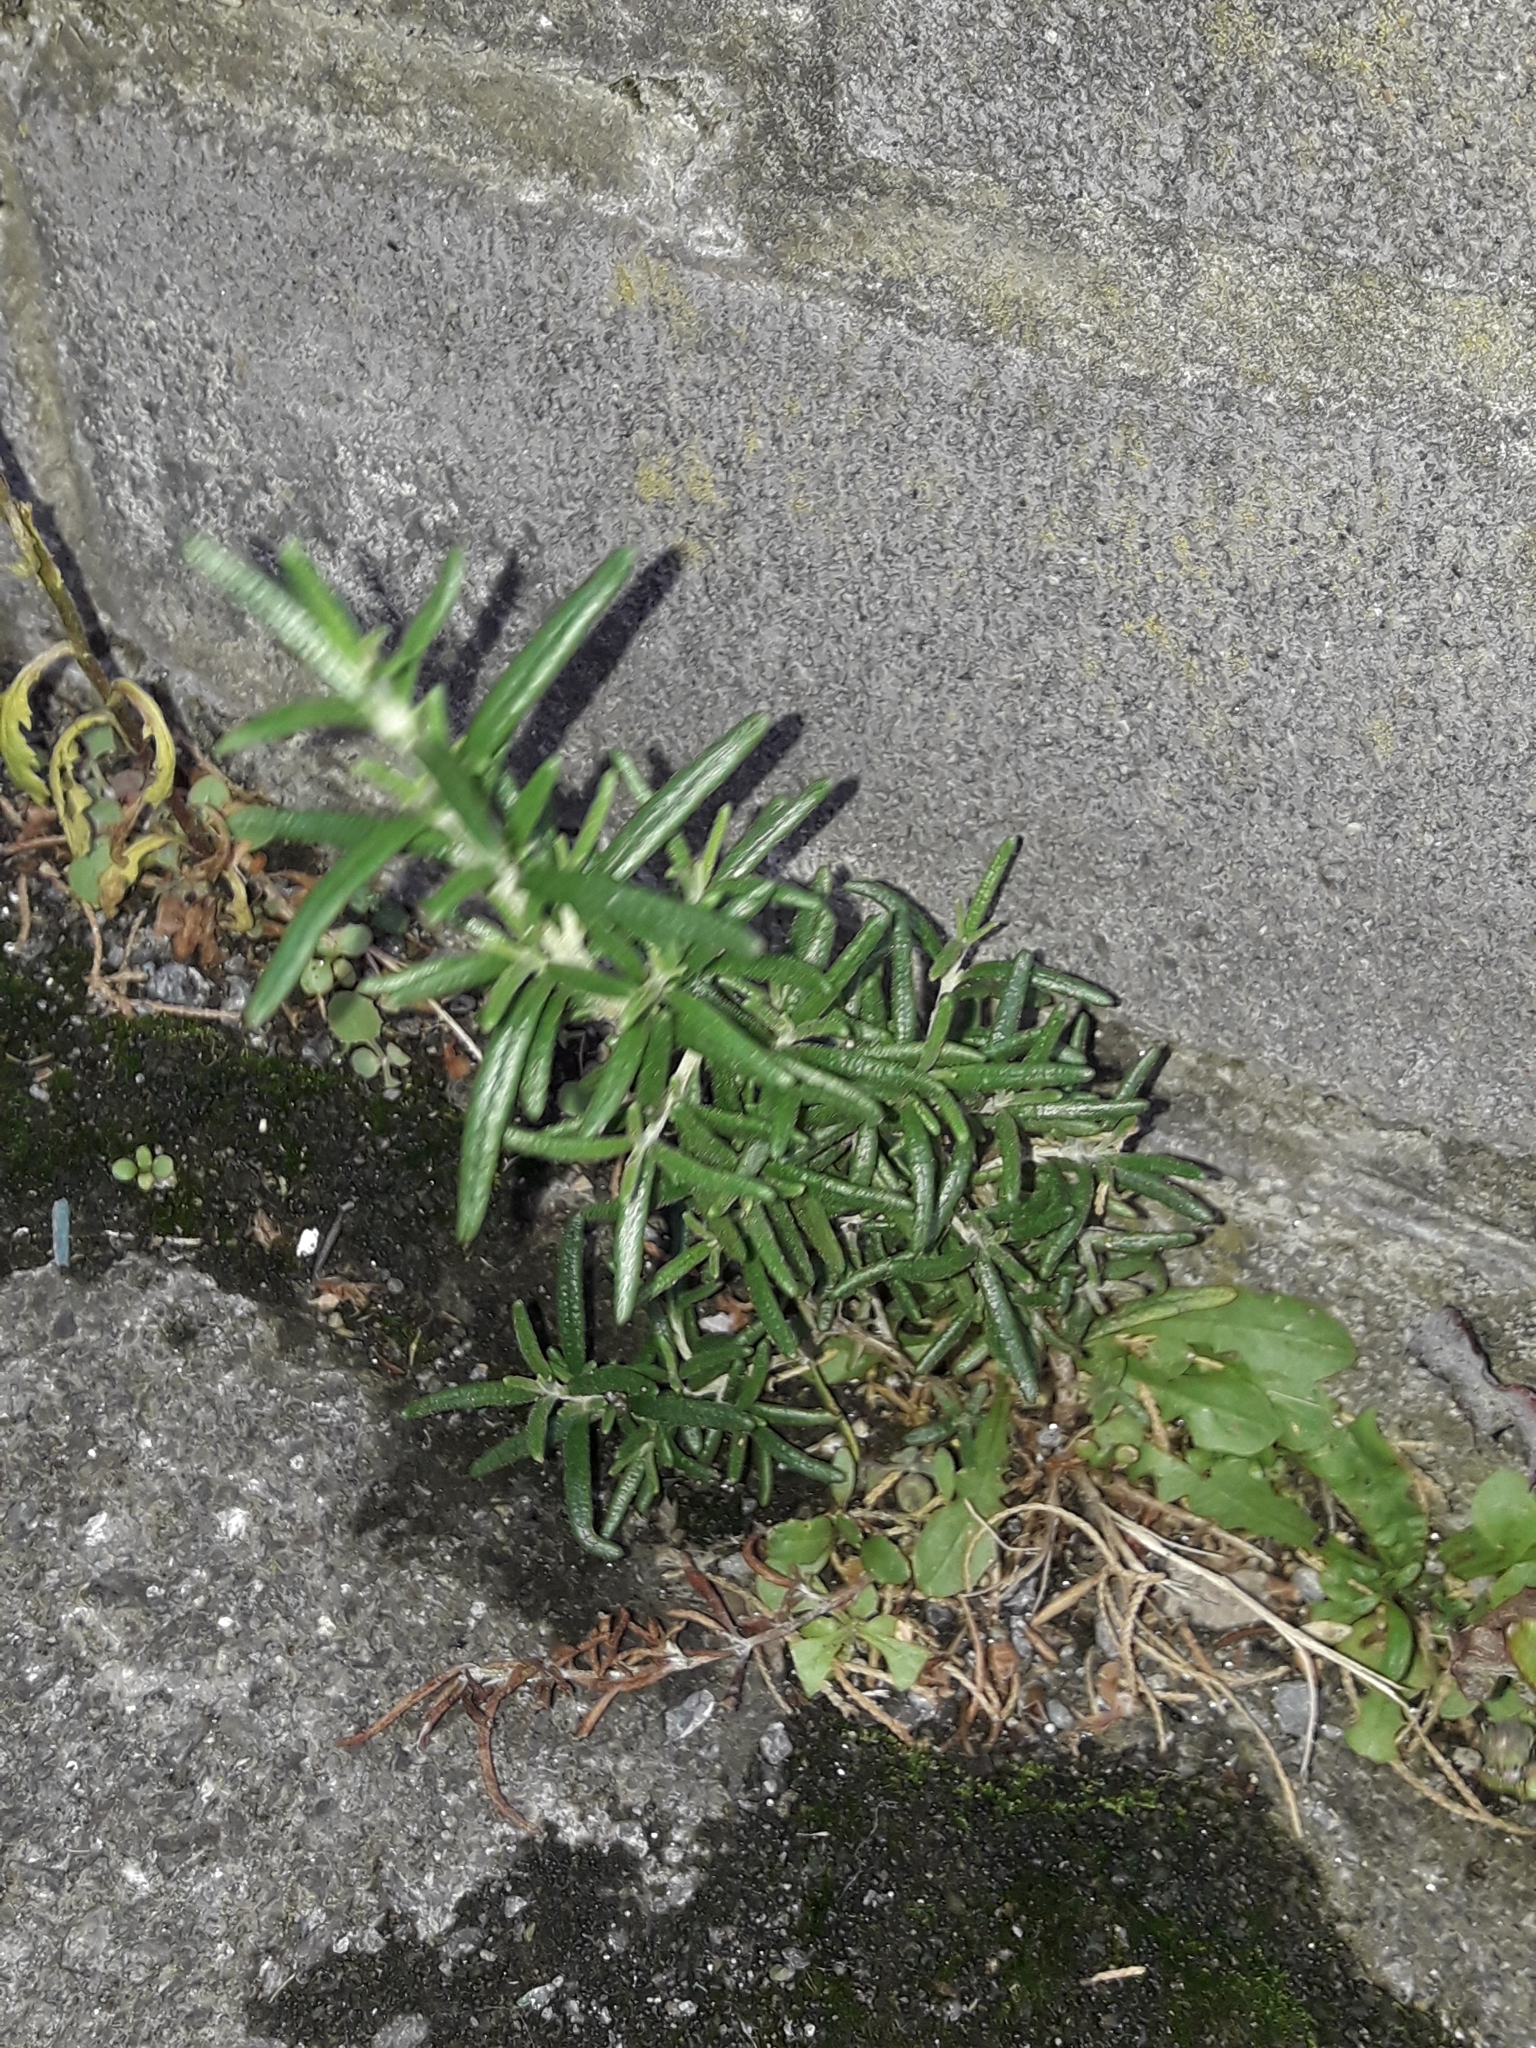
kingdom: Plantae
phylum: Tracheophyta
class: Magnoliopsida
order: Lamiales
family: Lamiaceae
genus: Salvia
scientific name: Salvia rosmarinus
